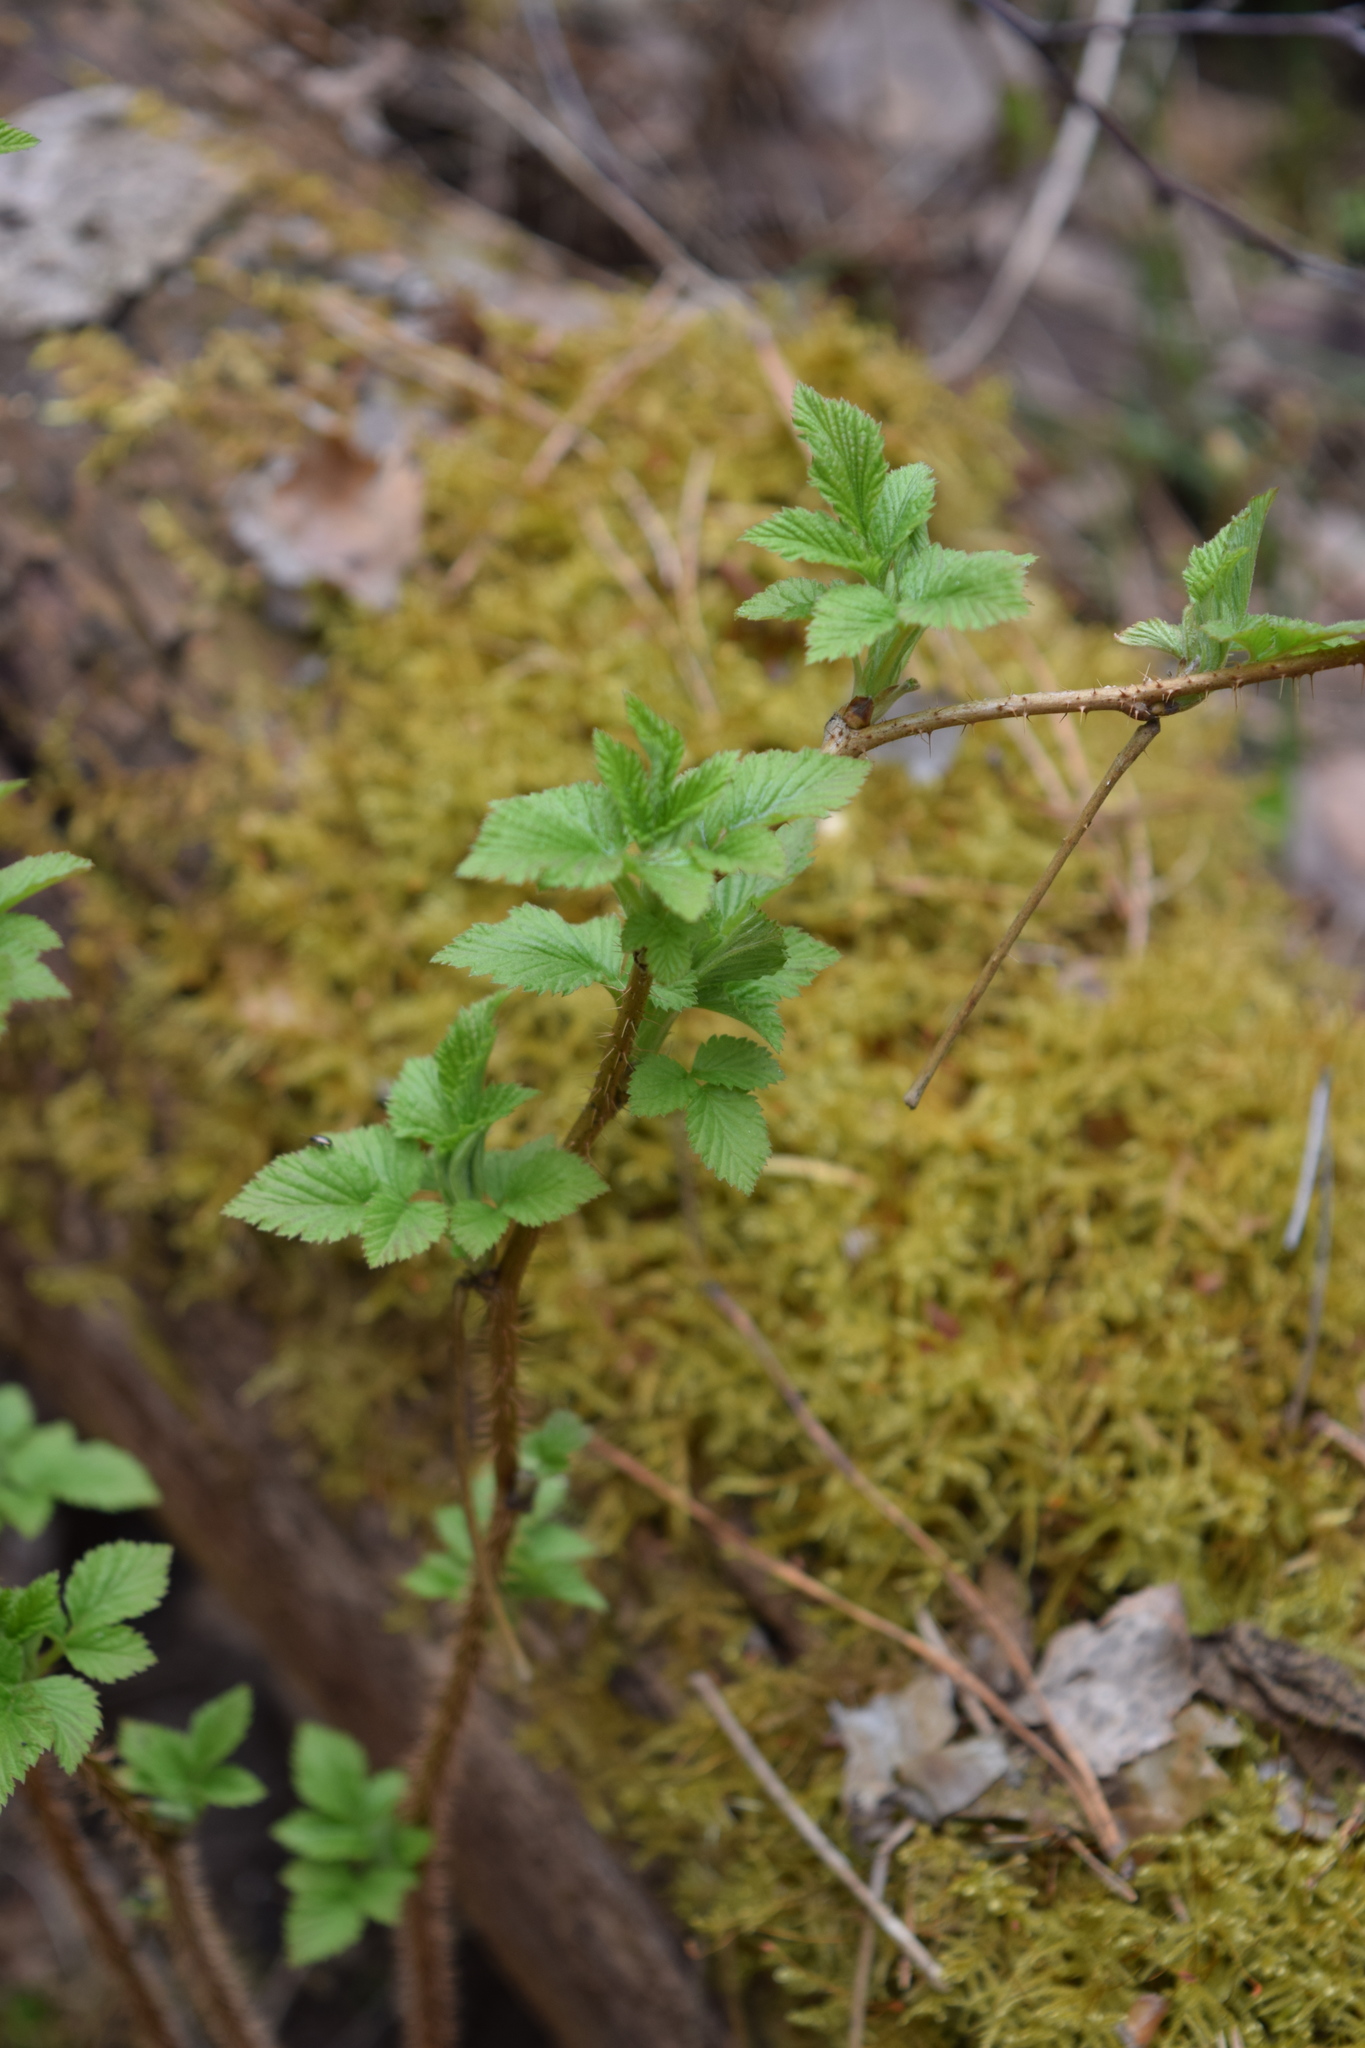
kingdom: Plantae
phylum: Tracheophyta
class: Magnoliopsida
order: Rosales
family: Rosaceae
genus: Rubus
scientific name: Rubus idaeus
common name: Raspberry
